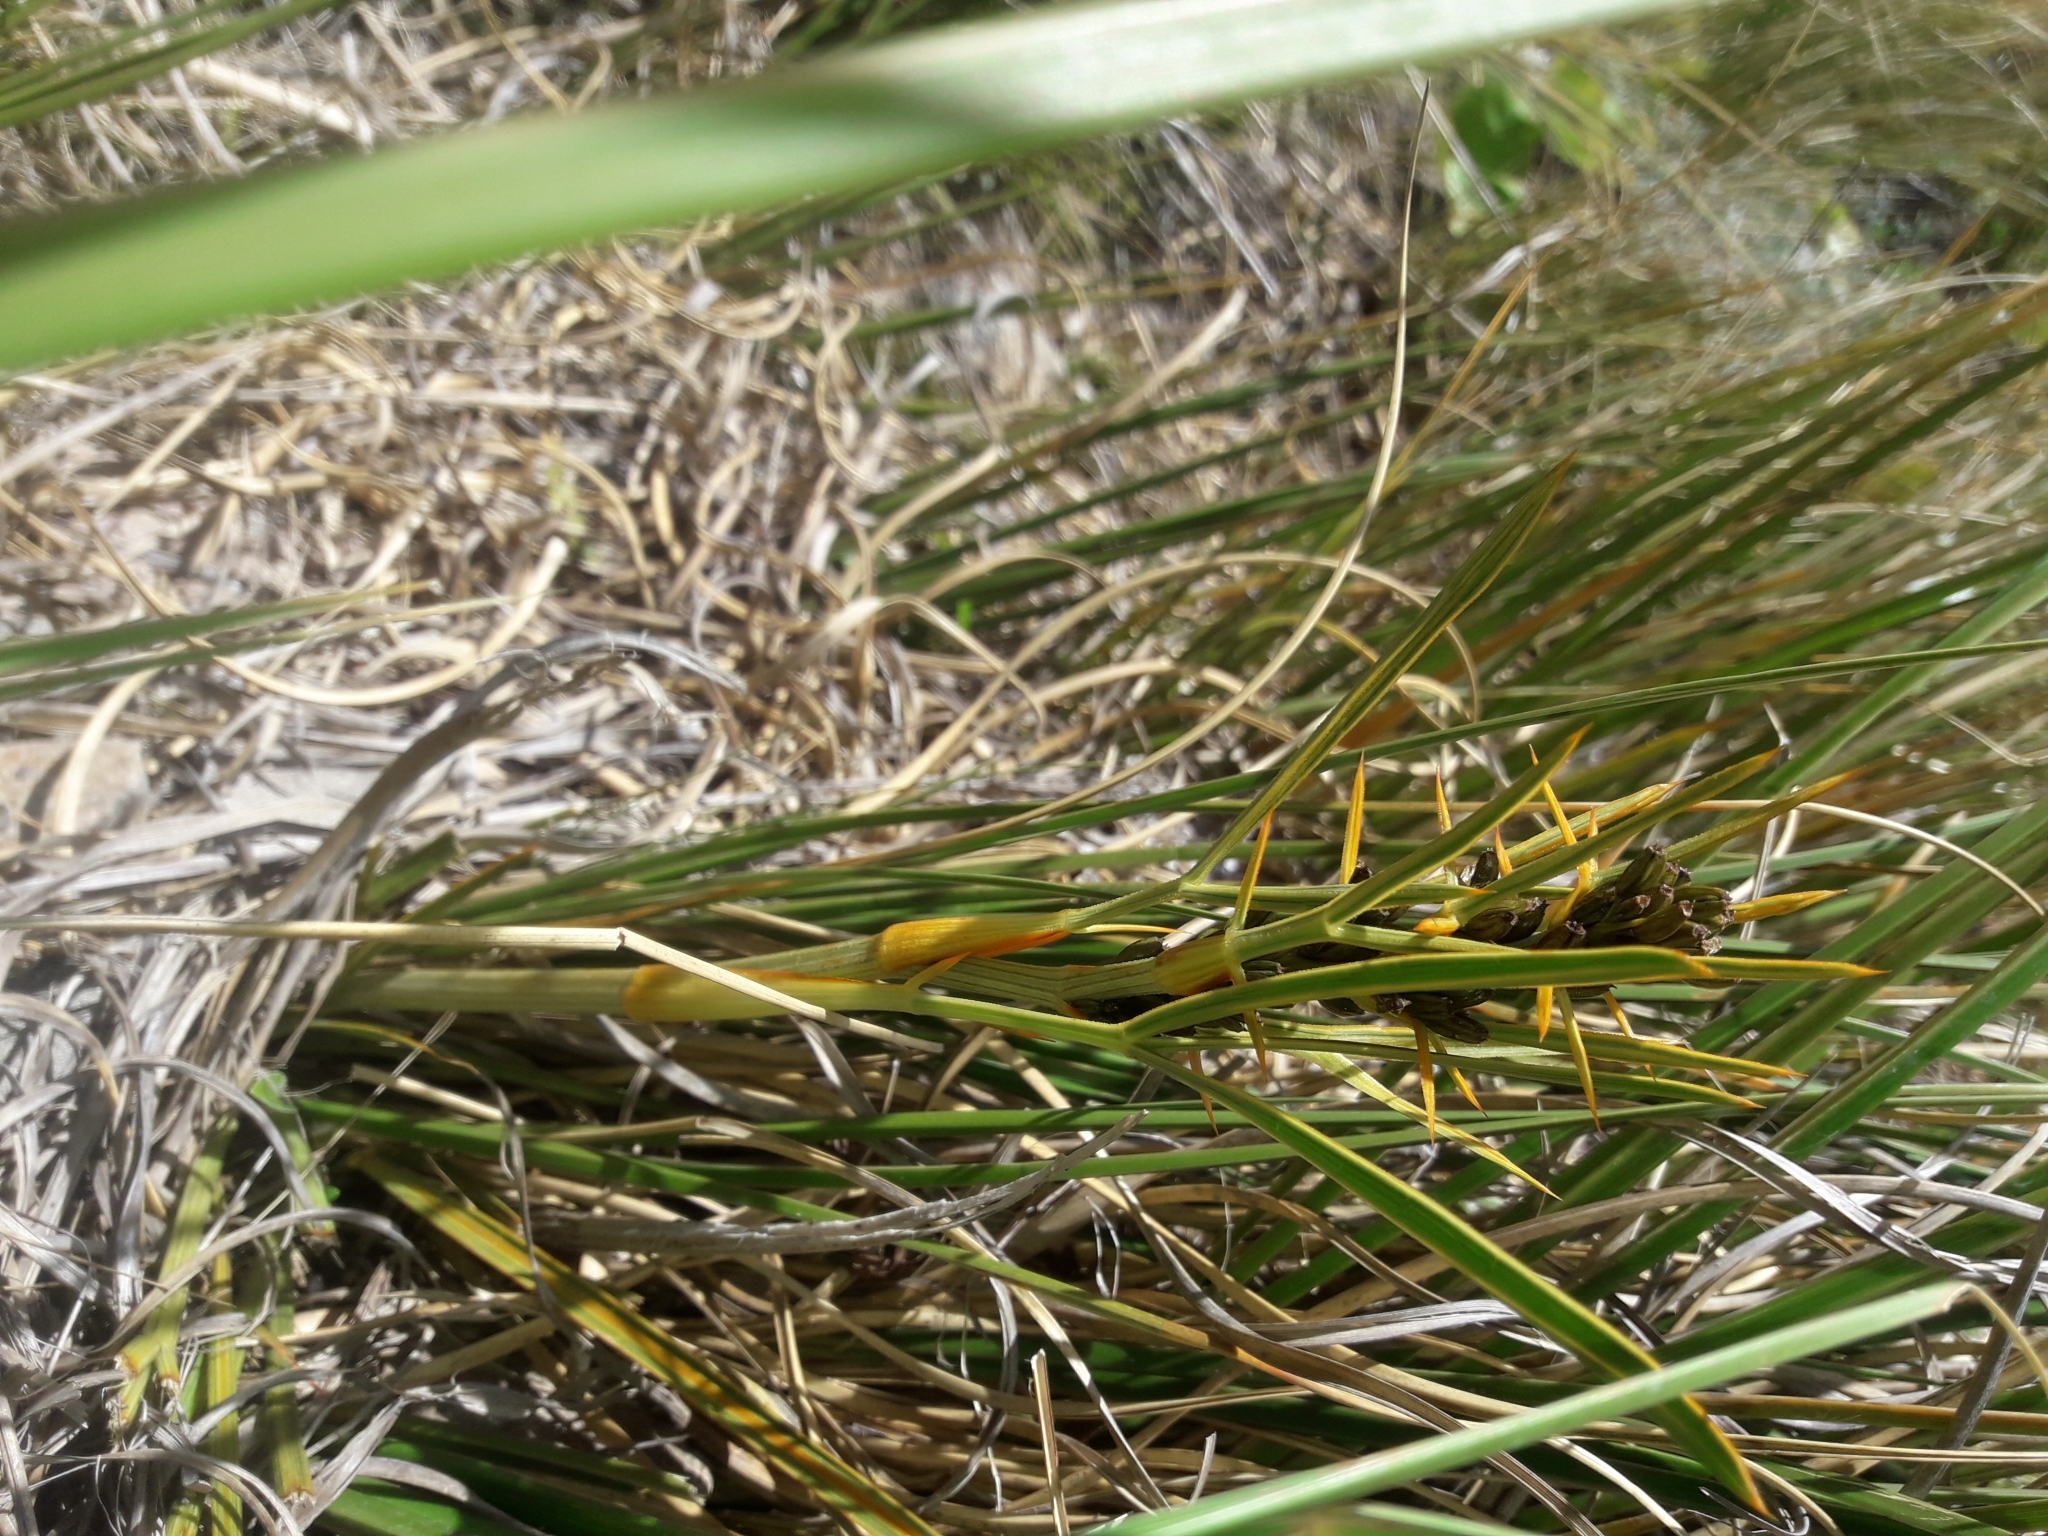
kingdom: Plantae
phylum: Tracheophyta
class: Magnoliopsida
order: Apiales
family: Apiaceae
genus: Aciphylla
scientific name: Aciphylla crenulata
